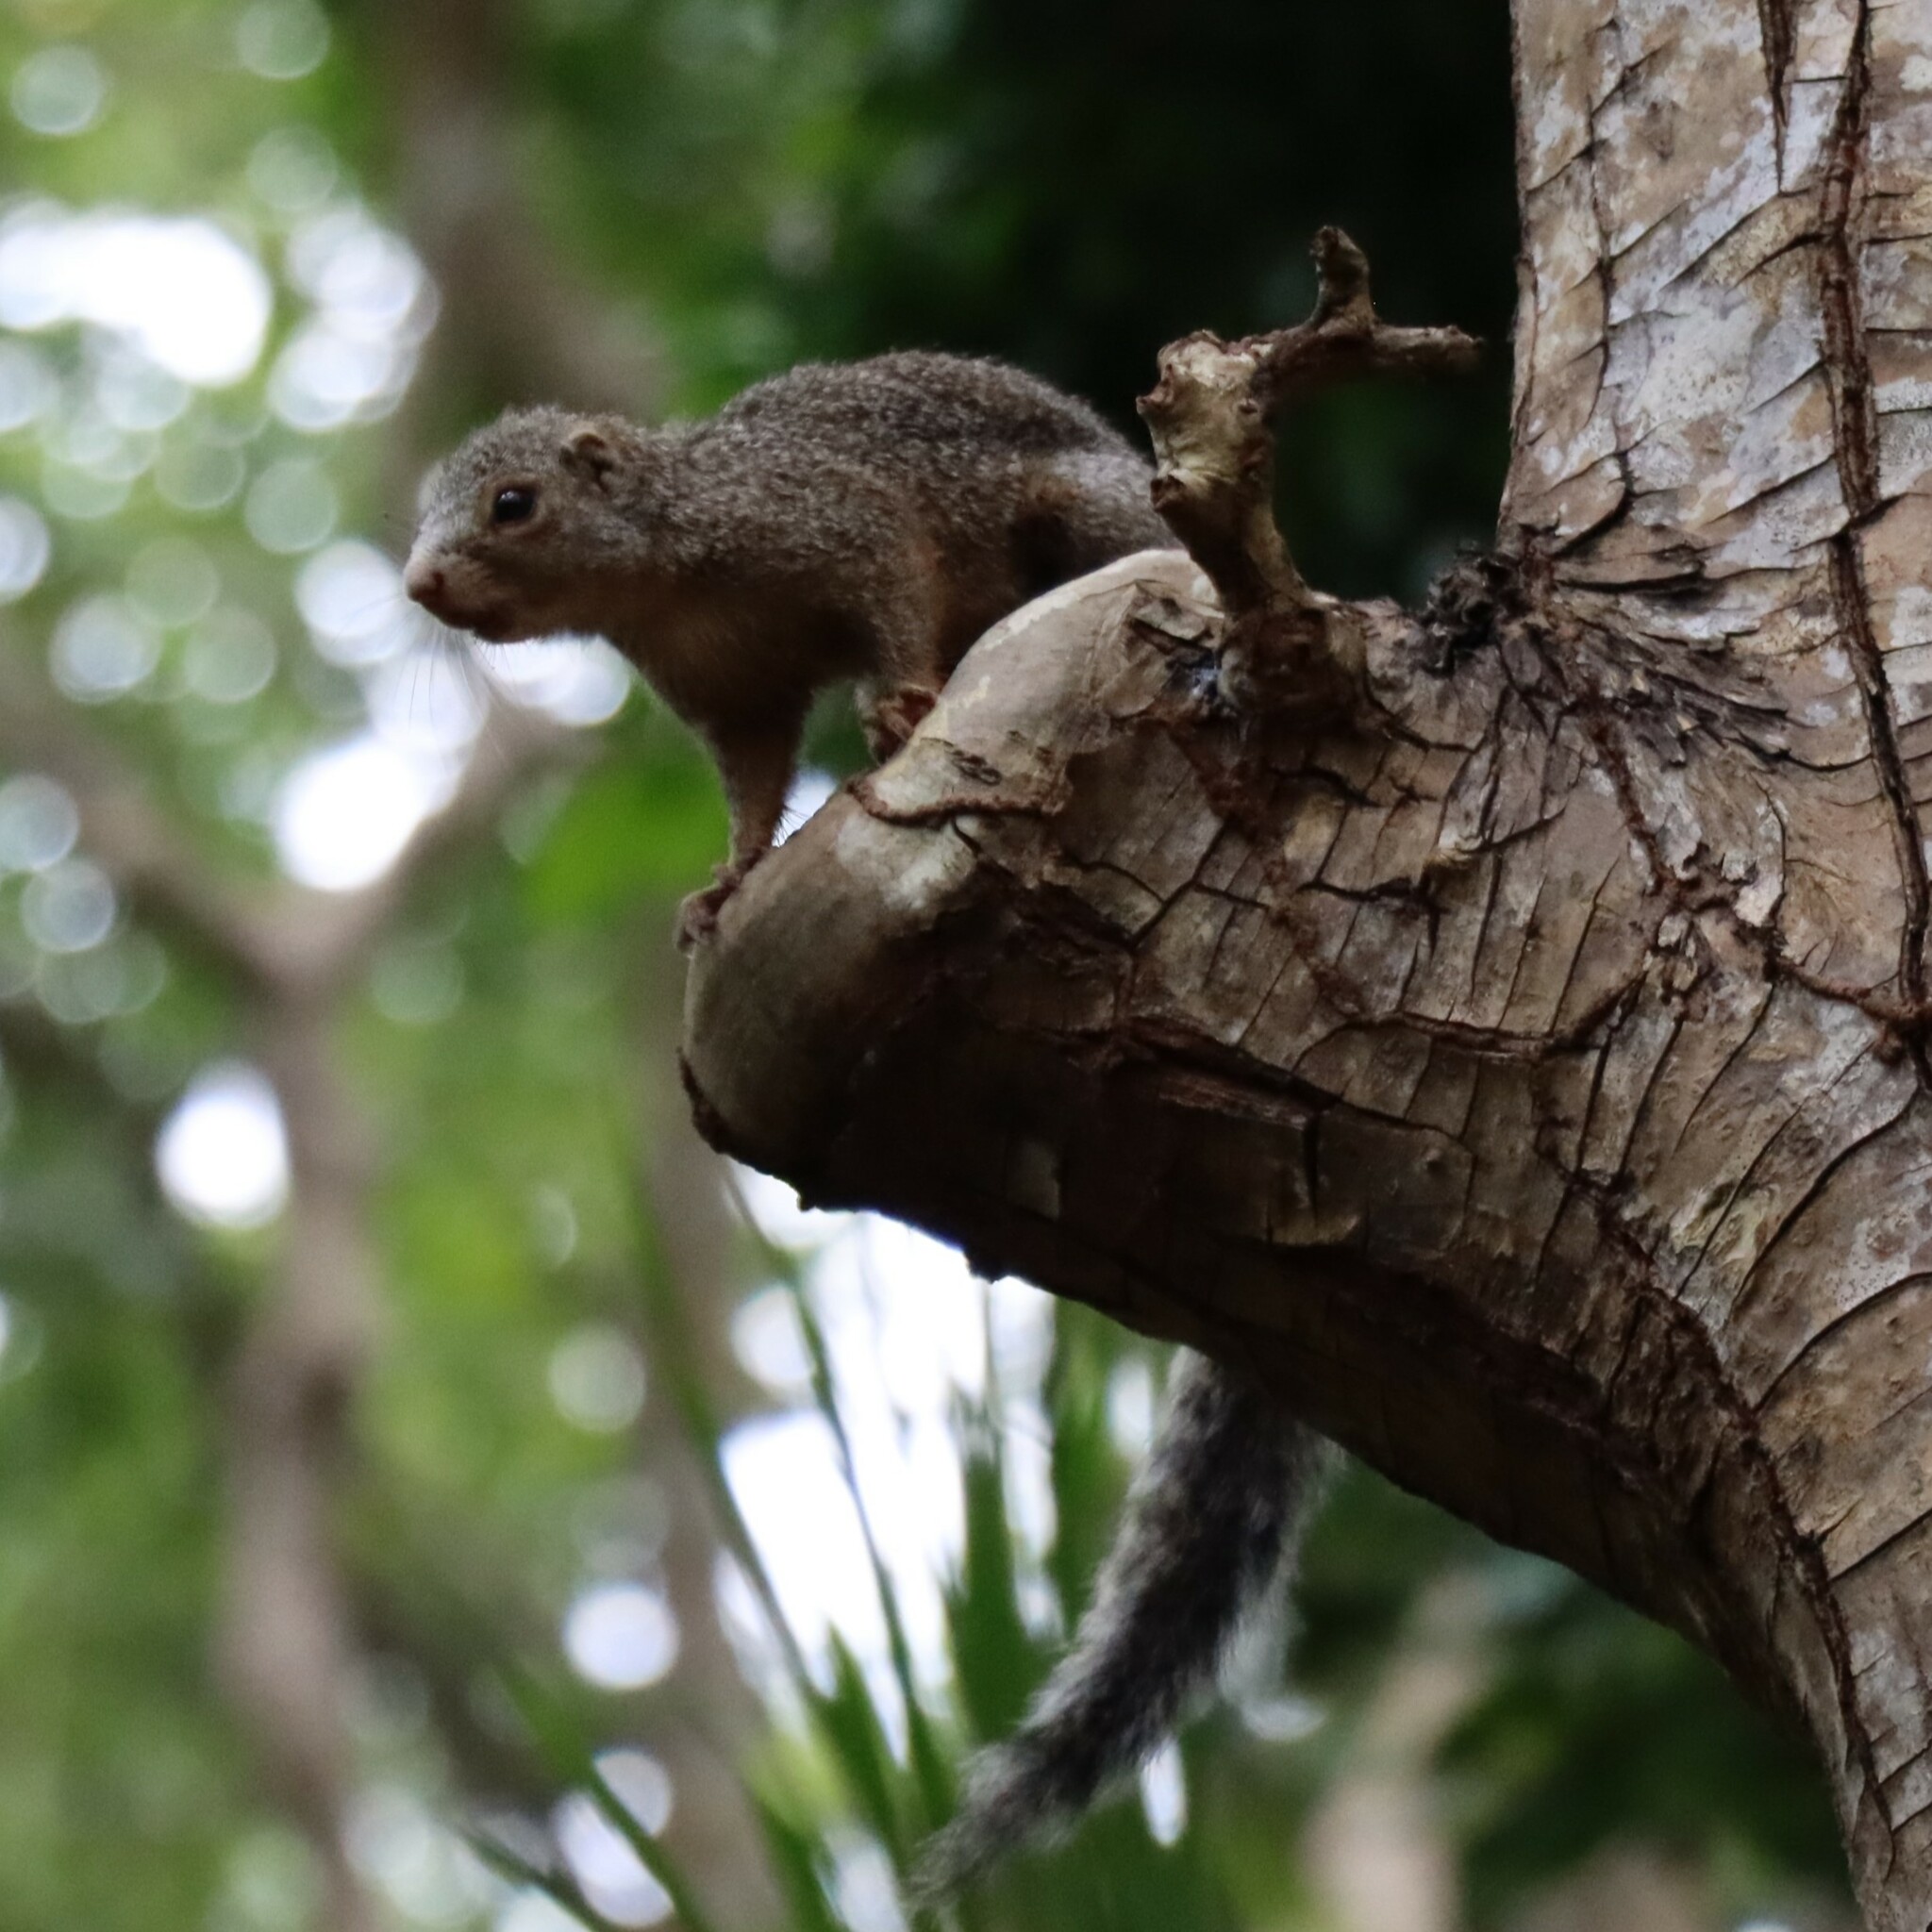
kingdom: Animalia
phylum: Chordata
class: Mammalia
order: Rodentia
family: Sciuridae
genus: Heliosciurus
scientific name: Heliosciurus undulatus
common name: Zanj sun squirrel
